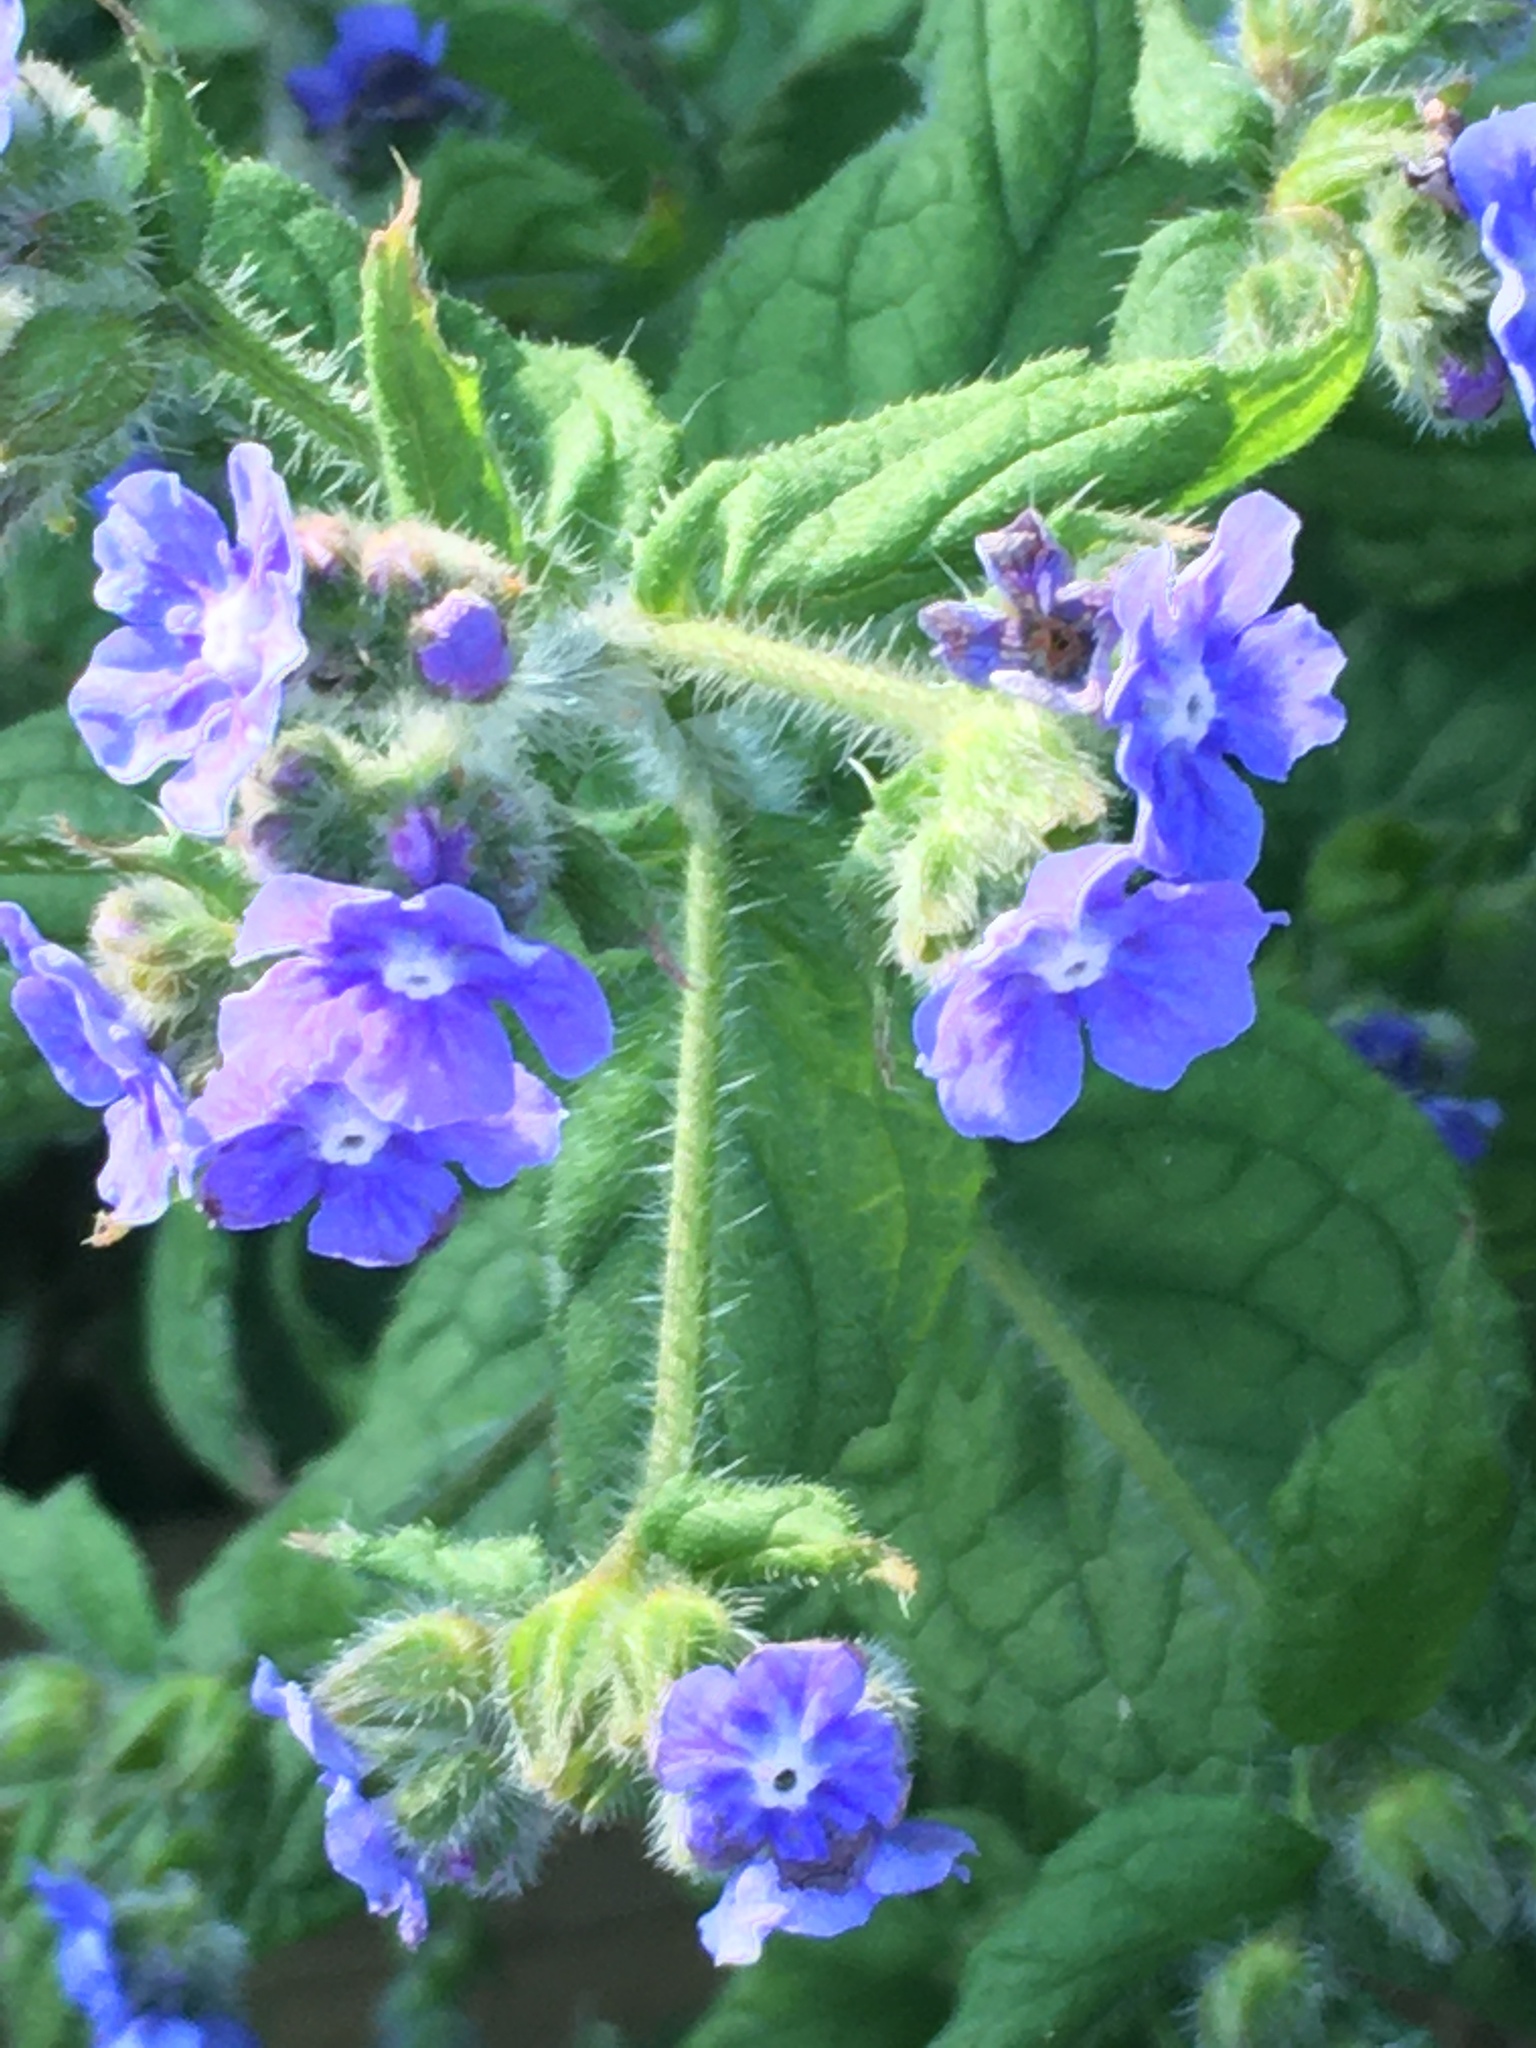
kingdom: Plantae
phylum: Tracheophyta
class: Magnoliopsida
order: Boraginales
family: Boraginaceae
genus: Pentaglottis
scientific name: Pentaglottis sempervirens
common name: Green alkanet
